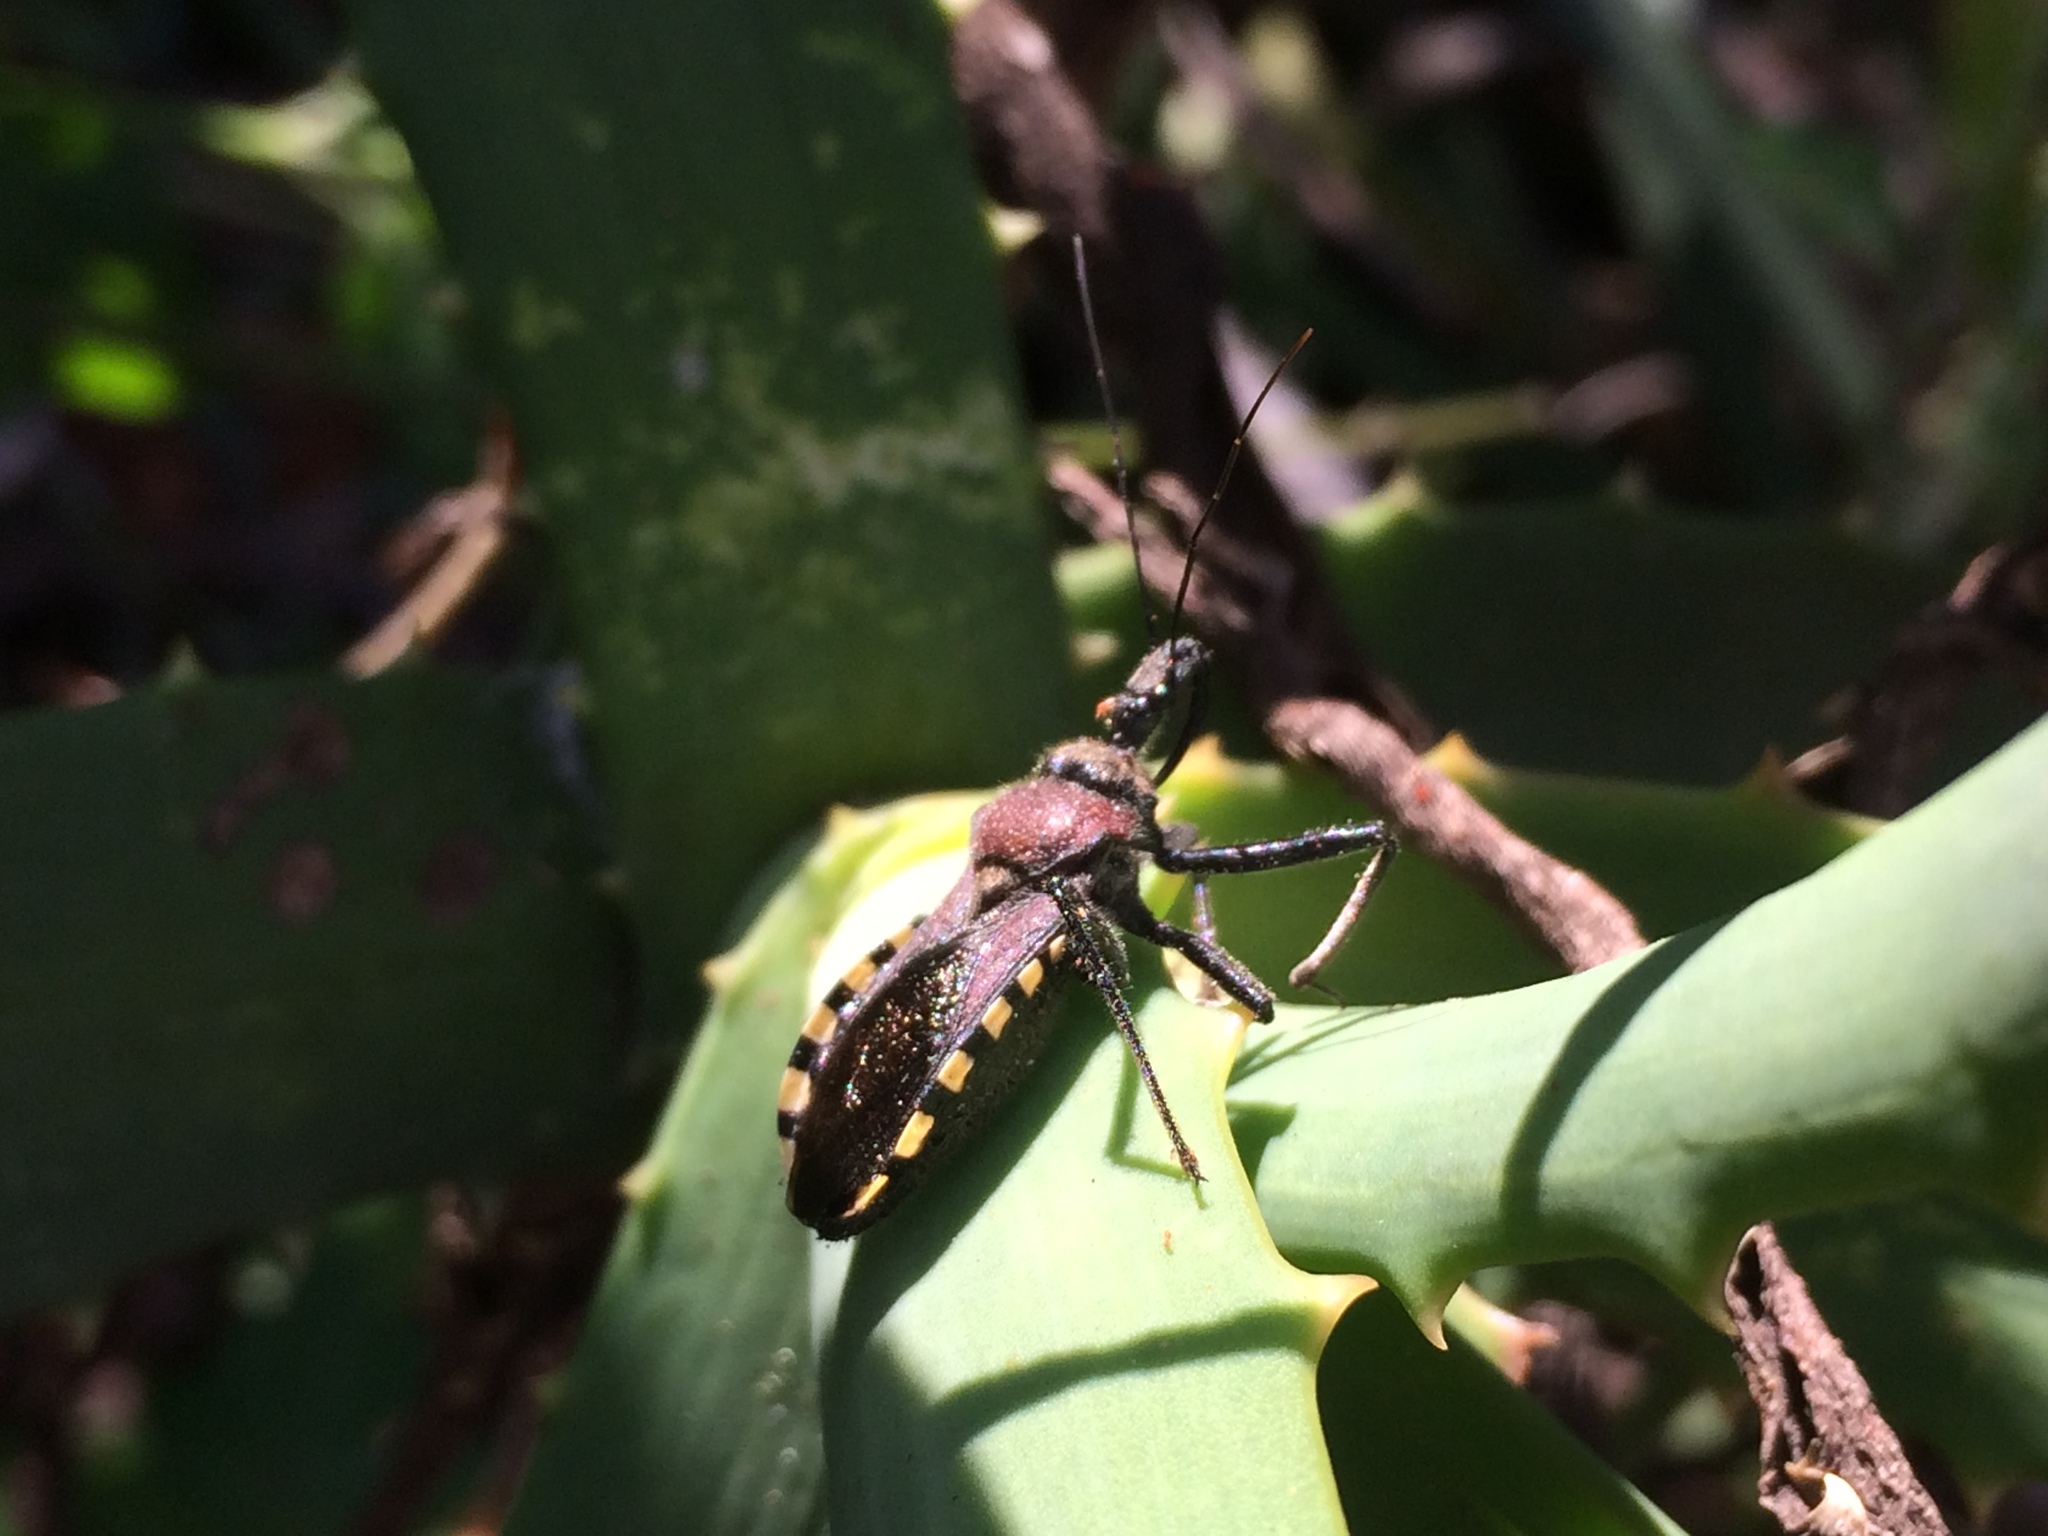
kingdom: Animalia
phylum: Arthropoda
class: Insecta
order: Hemiptera
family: Reduviidae
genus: Rhynocoris
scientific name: Rhynocoris erythrocnemis
